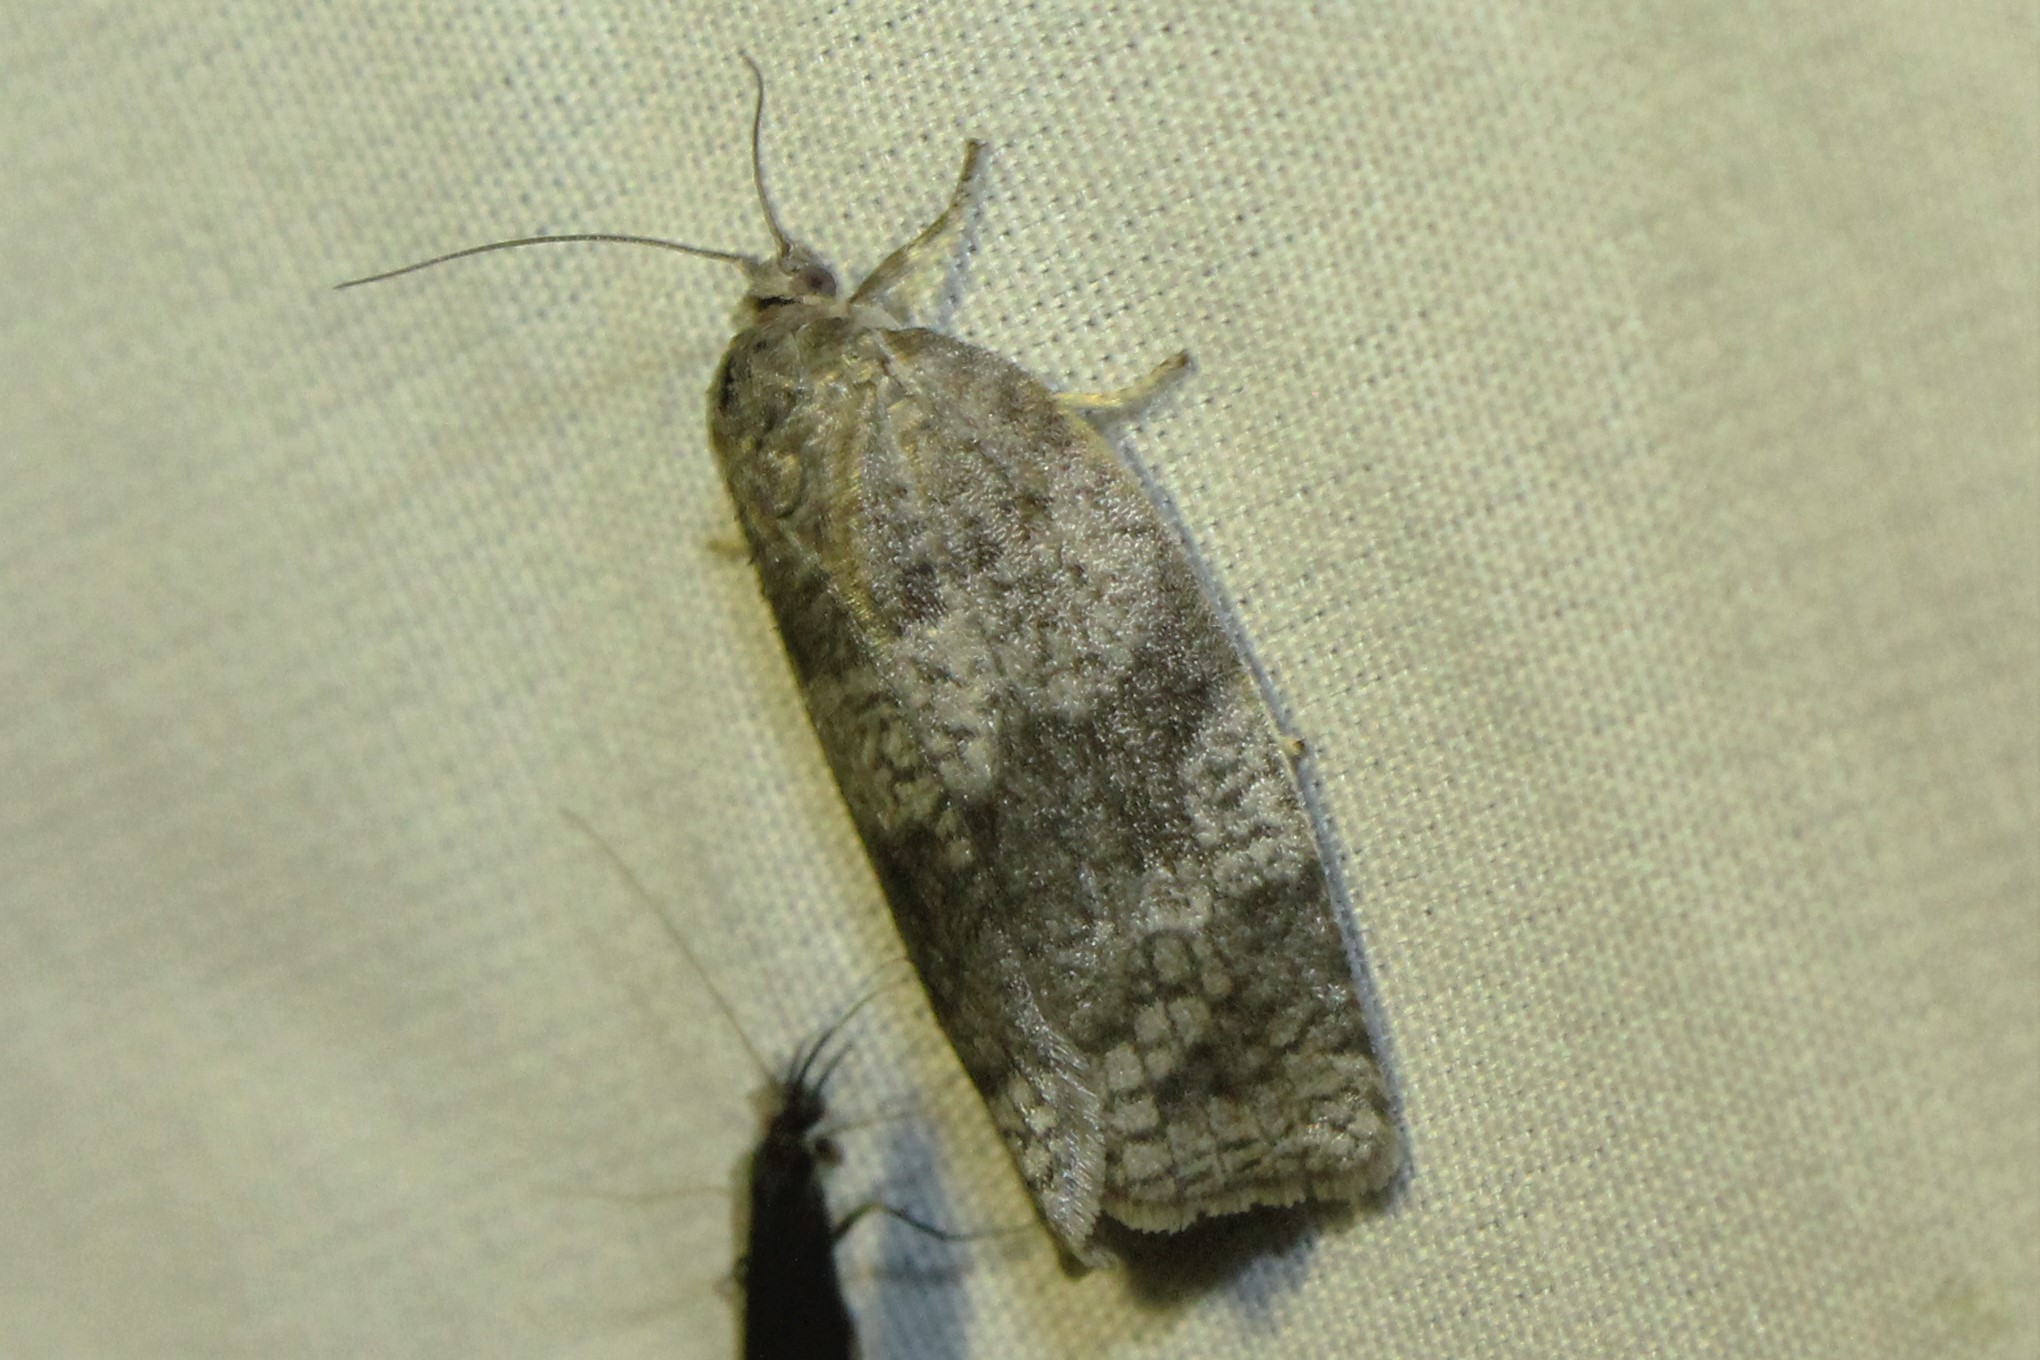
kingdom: Animalia
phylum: Arthropoda
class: Insecta
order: Lepidoptera
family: Tortricidae
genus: Choristoneura
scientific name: Choristoneura conflictana
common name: Large aspen tortrix
